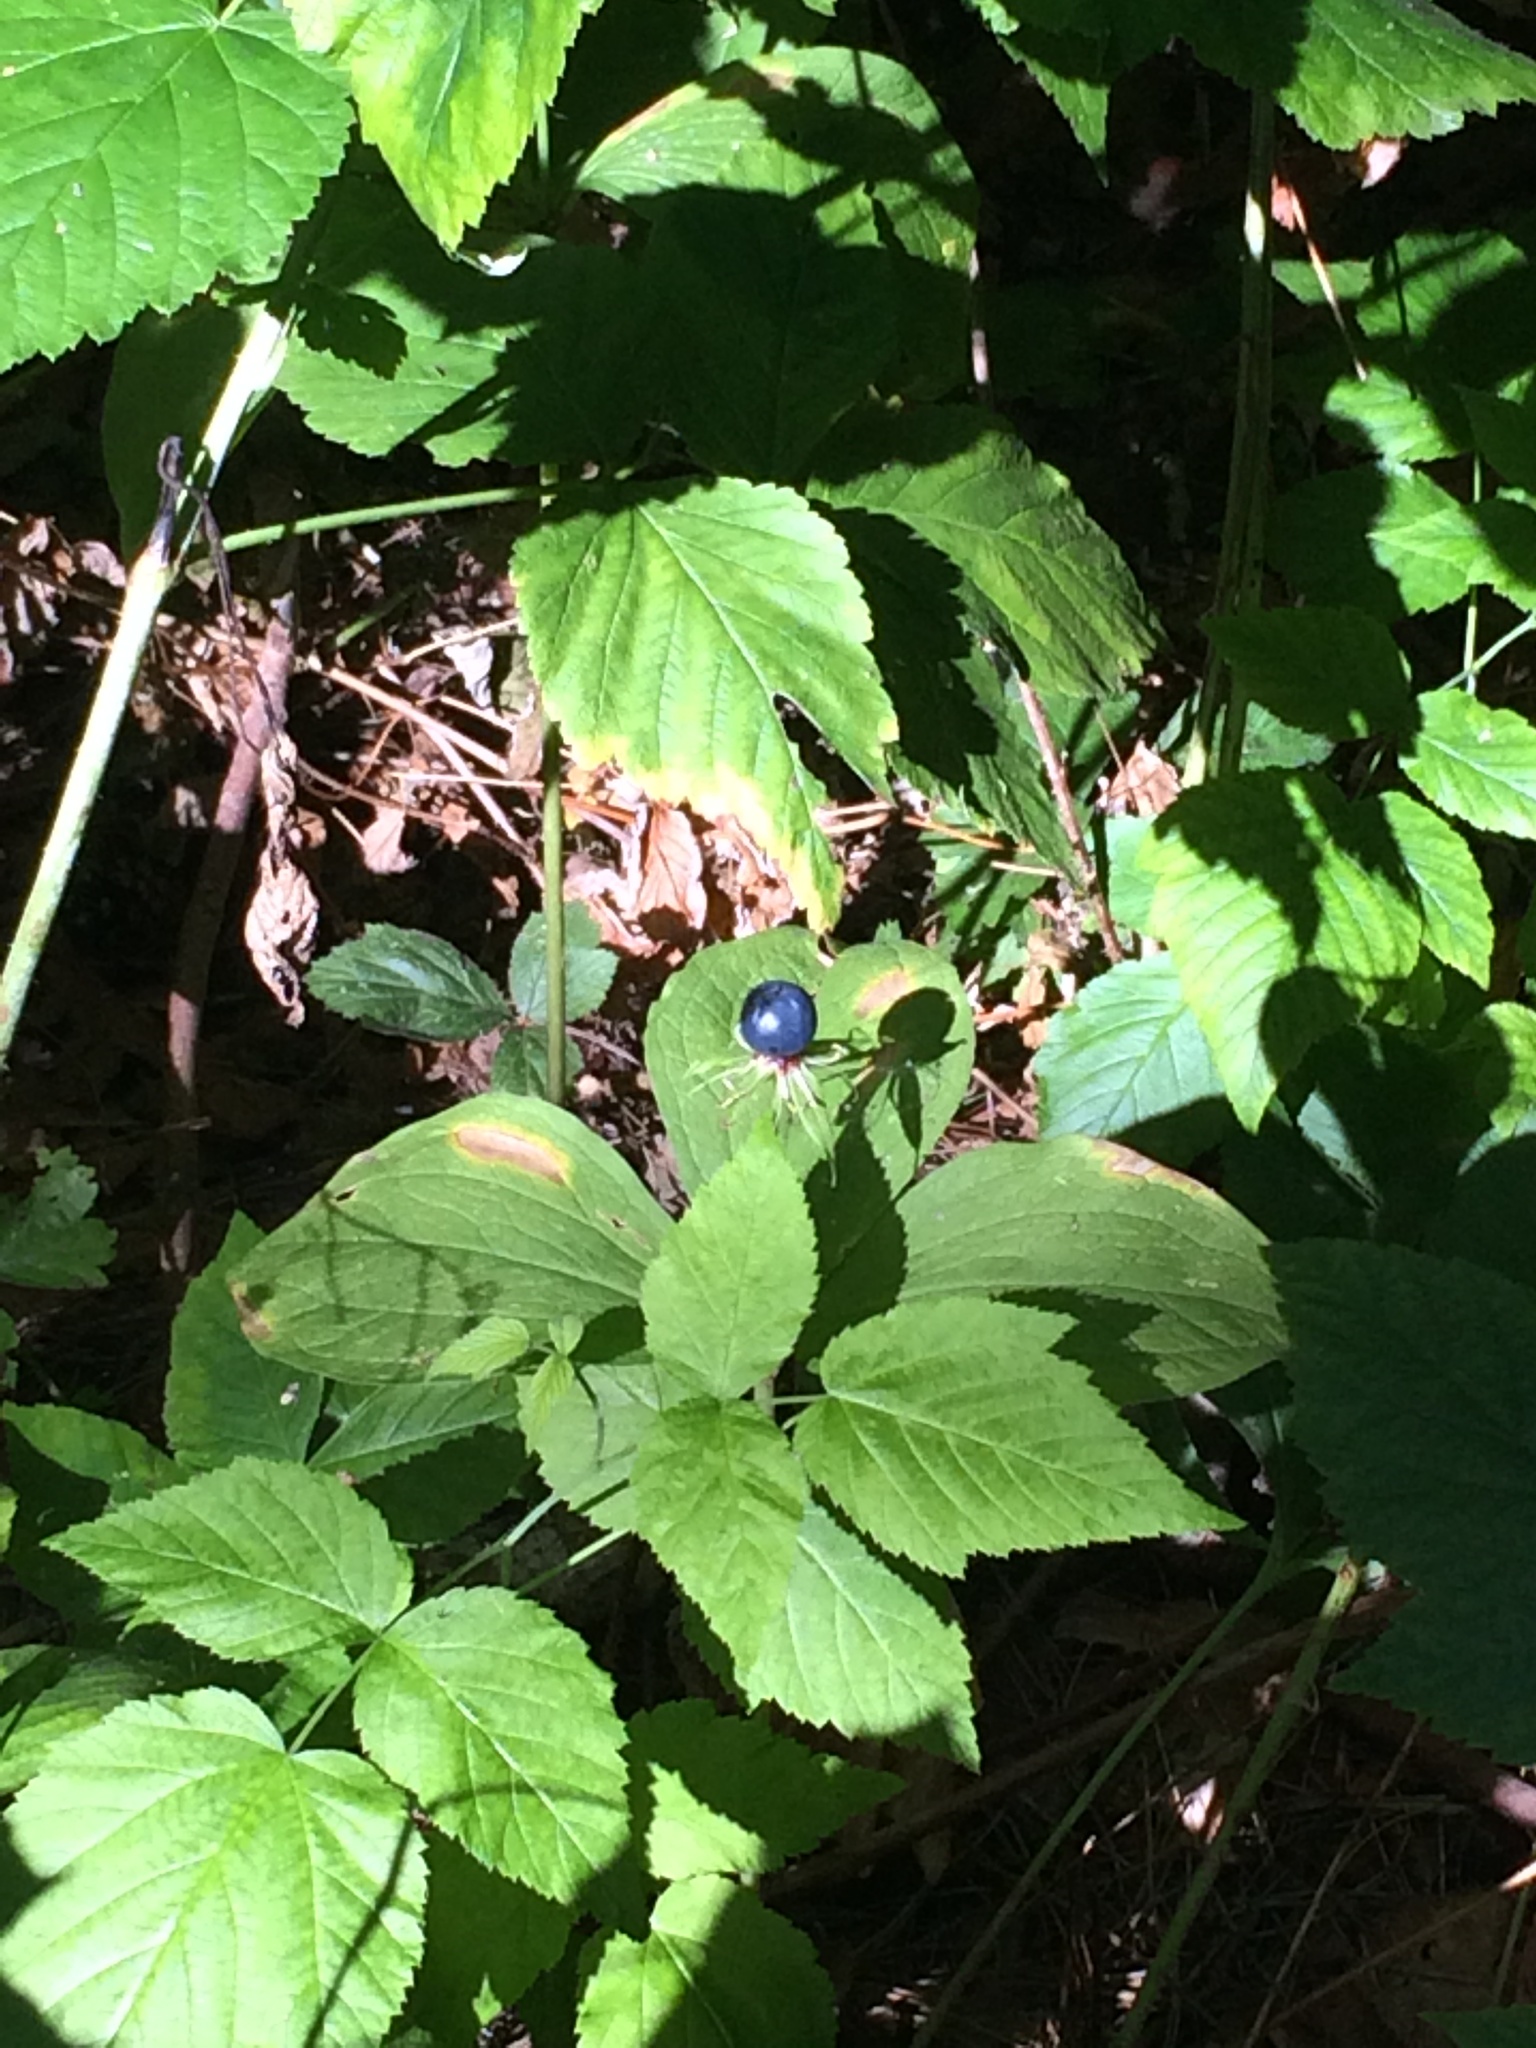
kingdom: Plantae
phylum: Tracheophyta
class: Liliopsida
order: Liliales
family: Melanthiaceae
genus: Paris
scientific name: Paris quadrifolia
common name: Herb-paris
